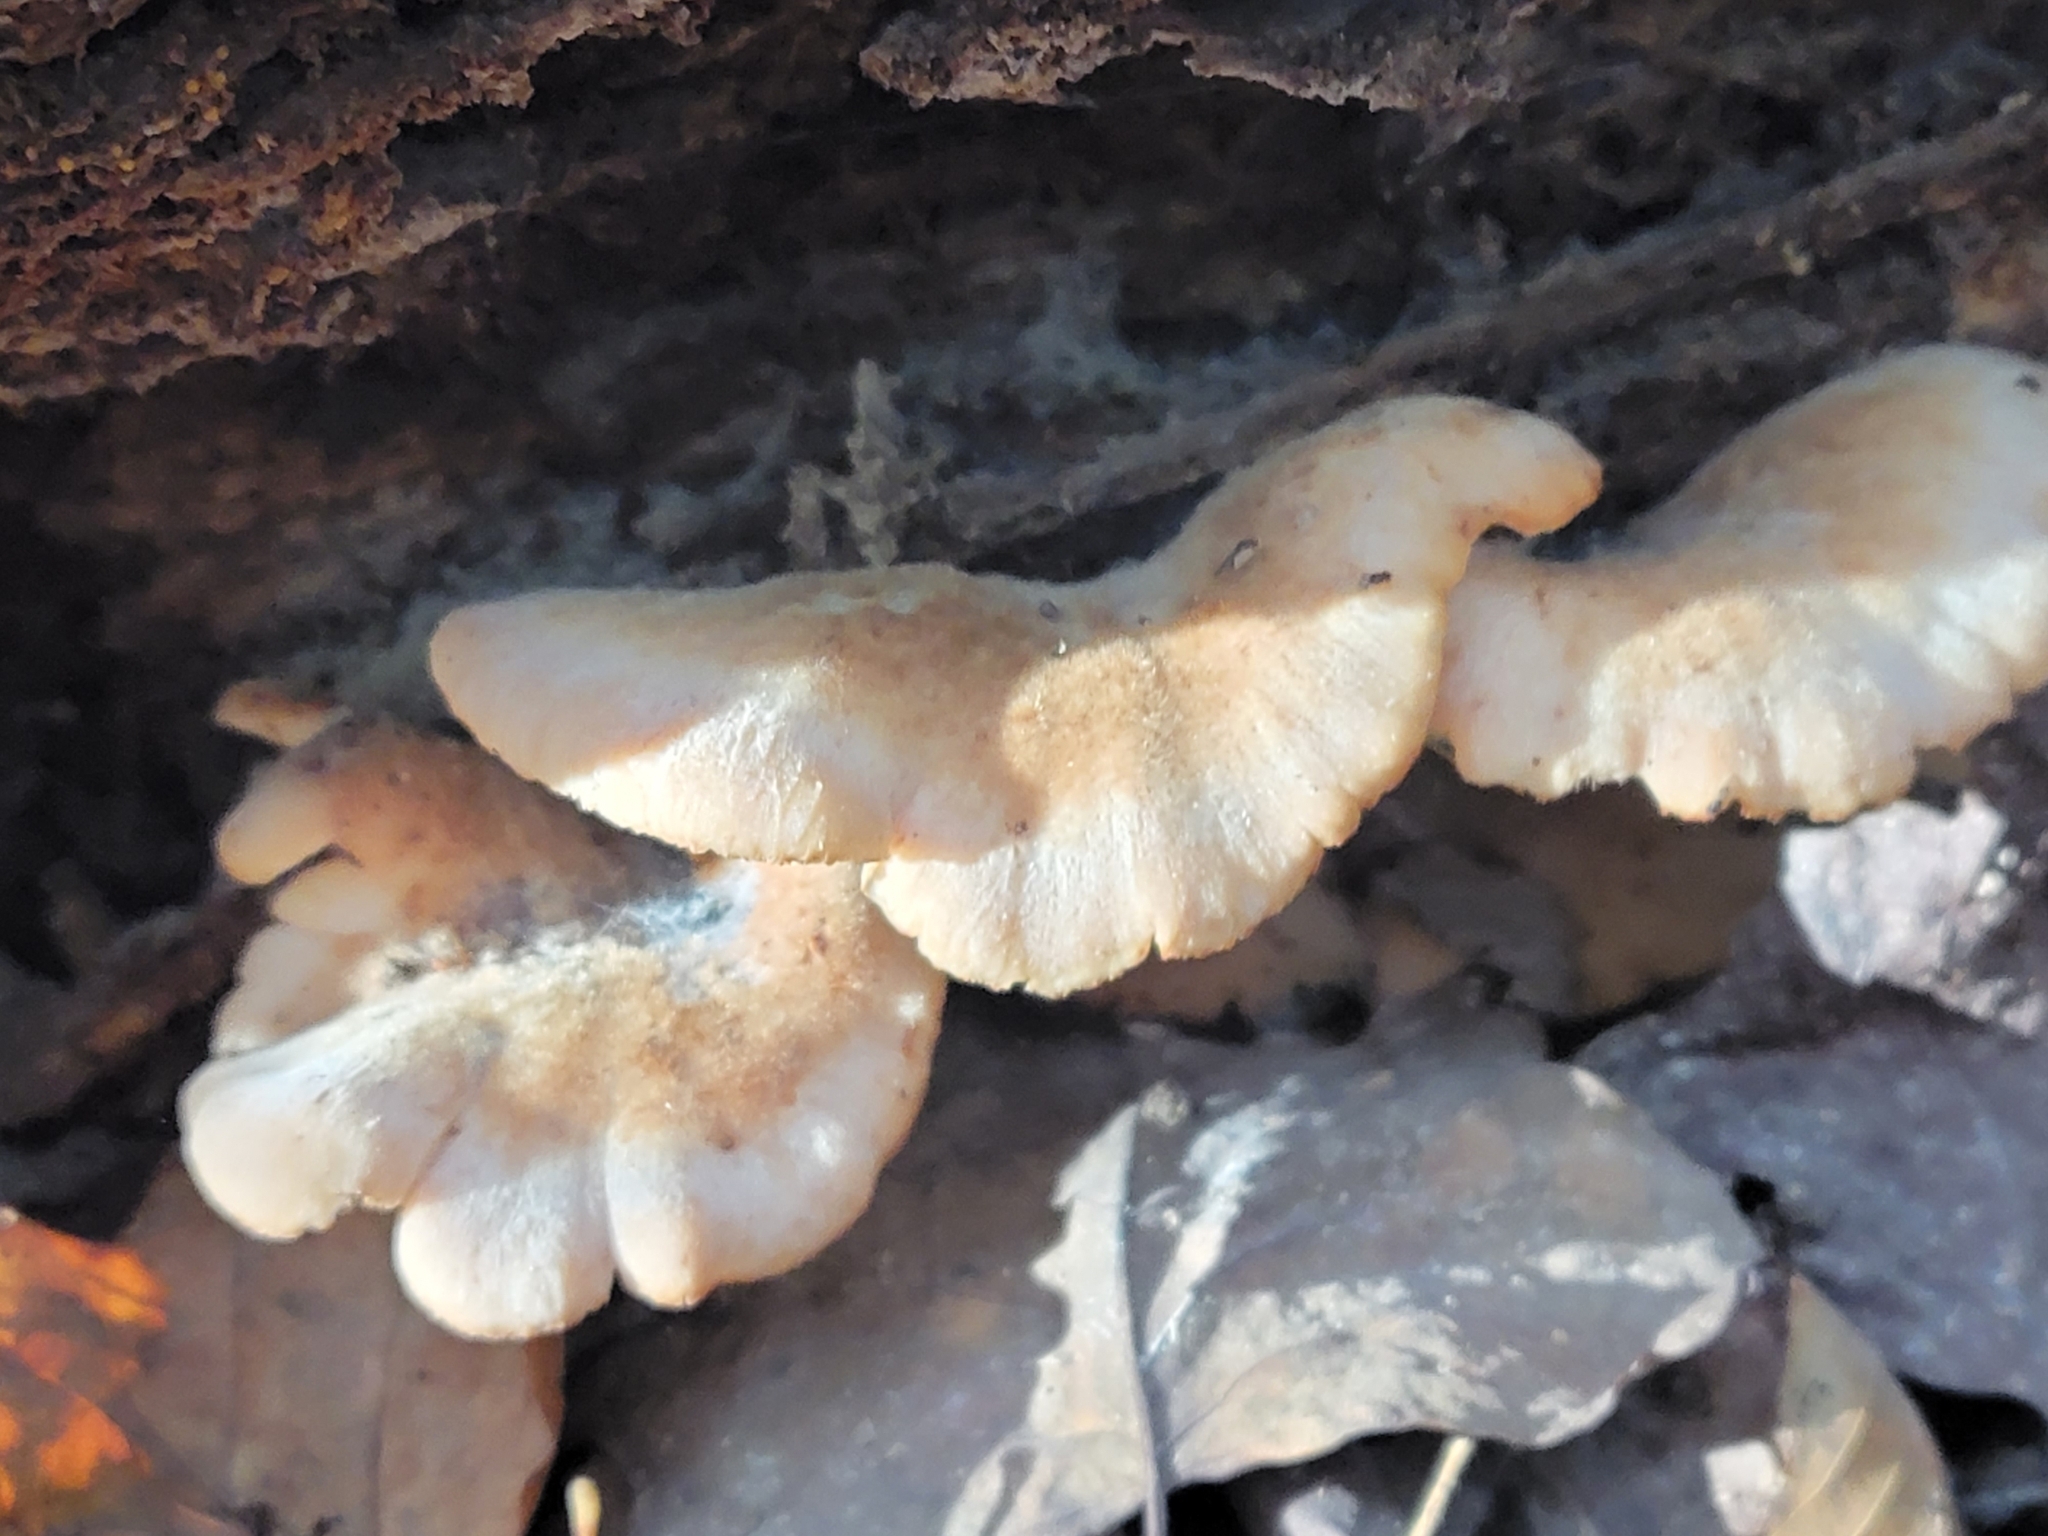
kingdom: Fungi
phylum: Basidiomycota
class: Agaricomycetes
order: Russulales
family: Auriscalpiaceae
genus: Lentinellus
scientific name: Lentinellus ursinus
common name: Bear lentinus
